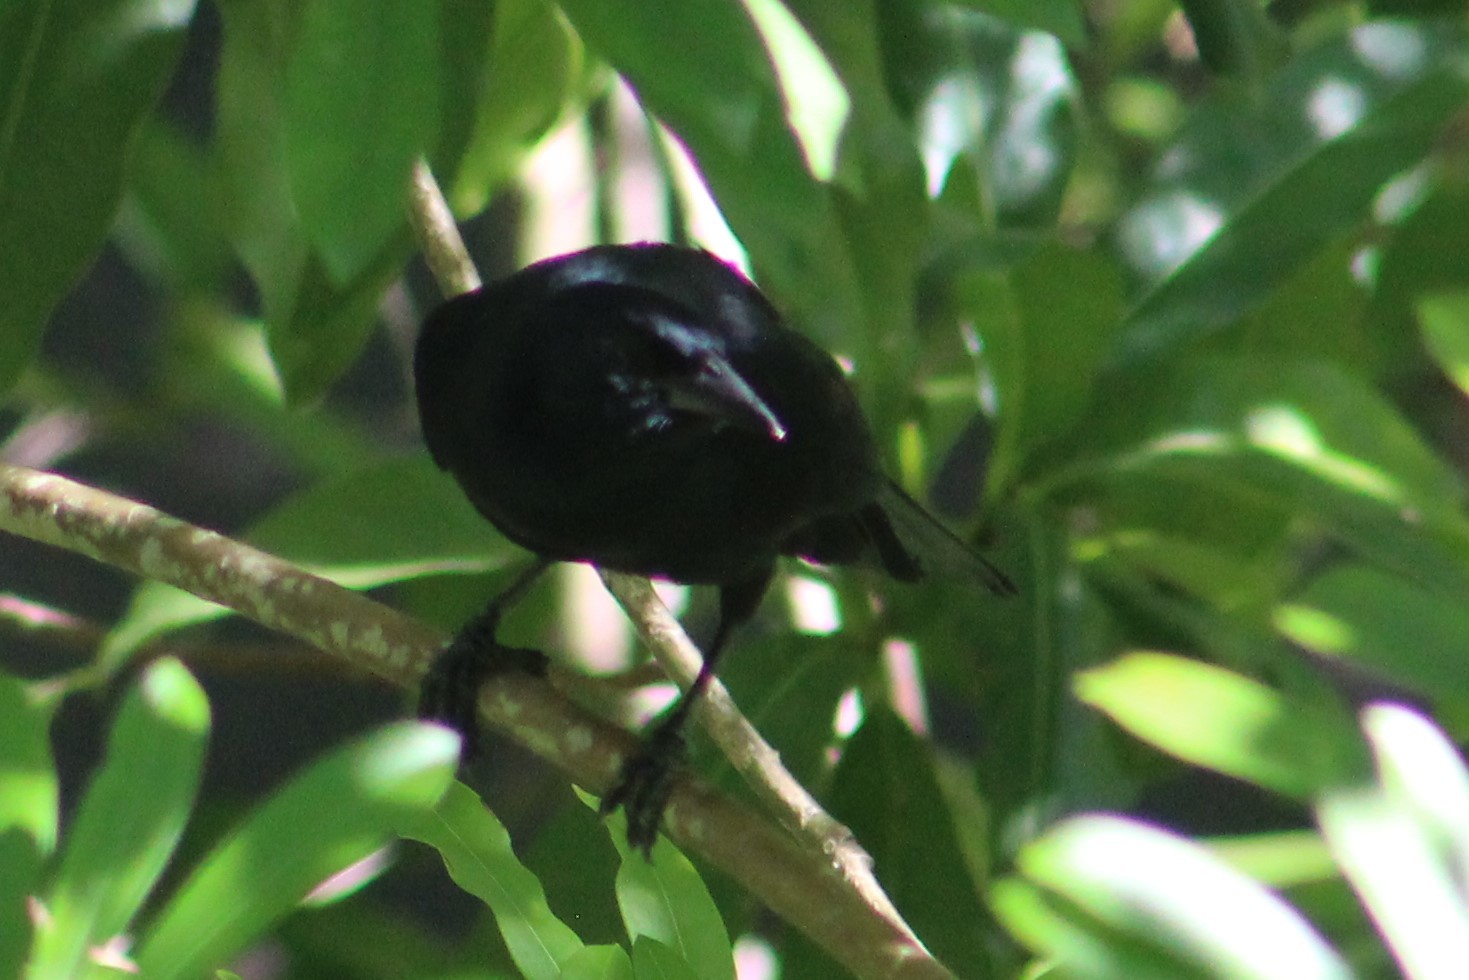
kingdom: Animalia
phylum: Chordata
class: Aves
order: Passeriformes
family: Icteridae
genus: Dives
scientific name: Dives dives
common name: Melodious blackbird
